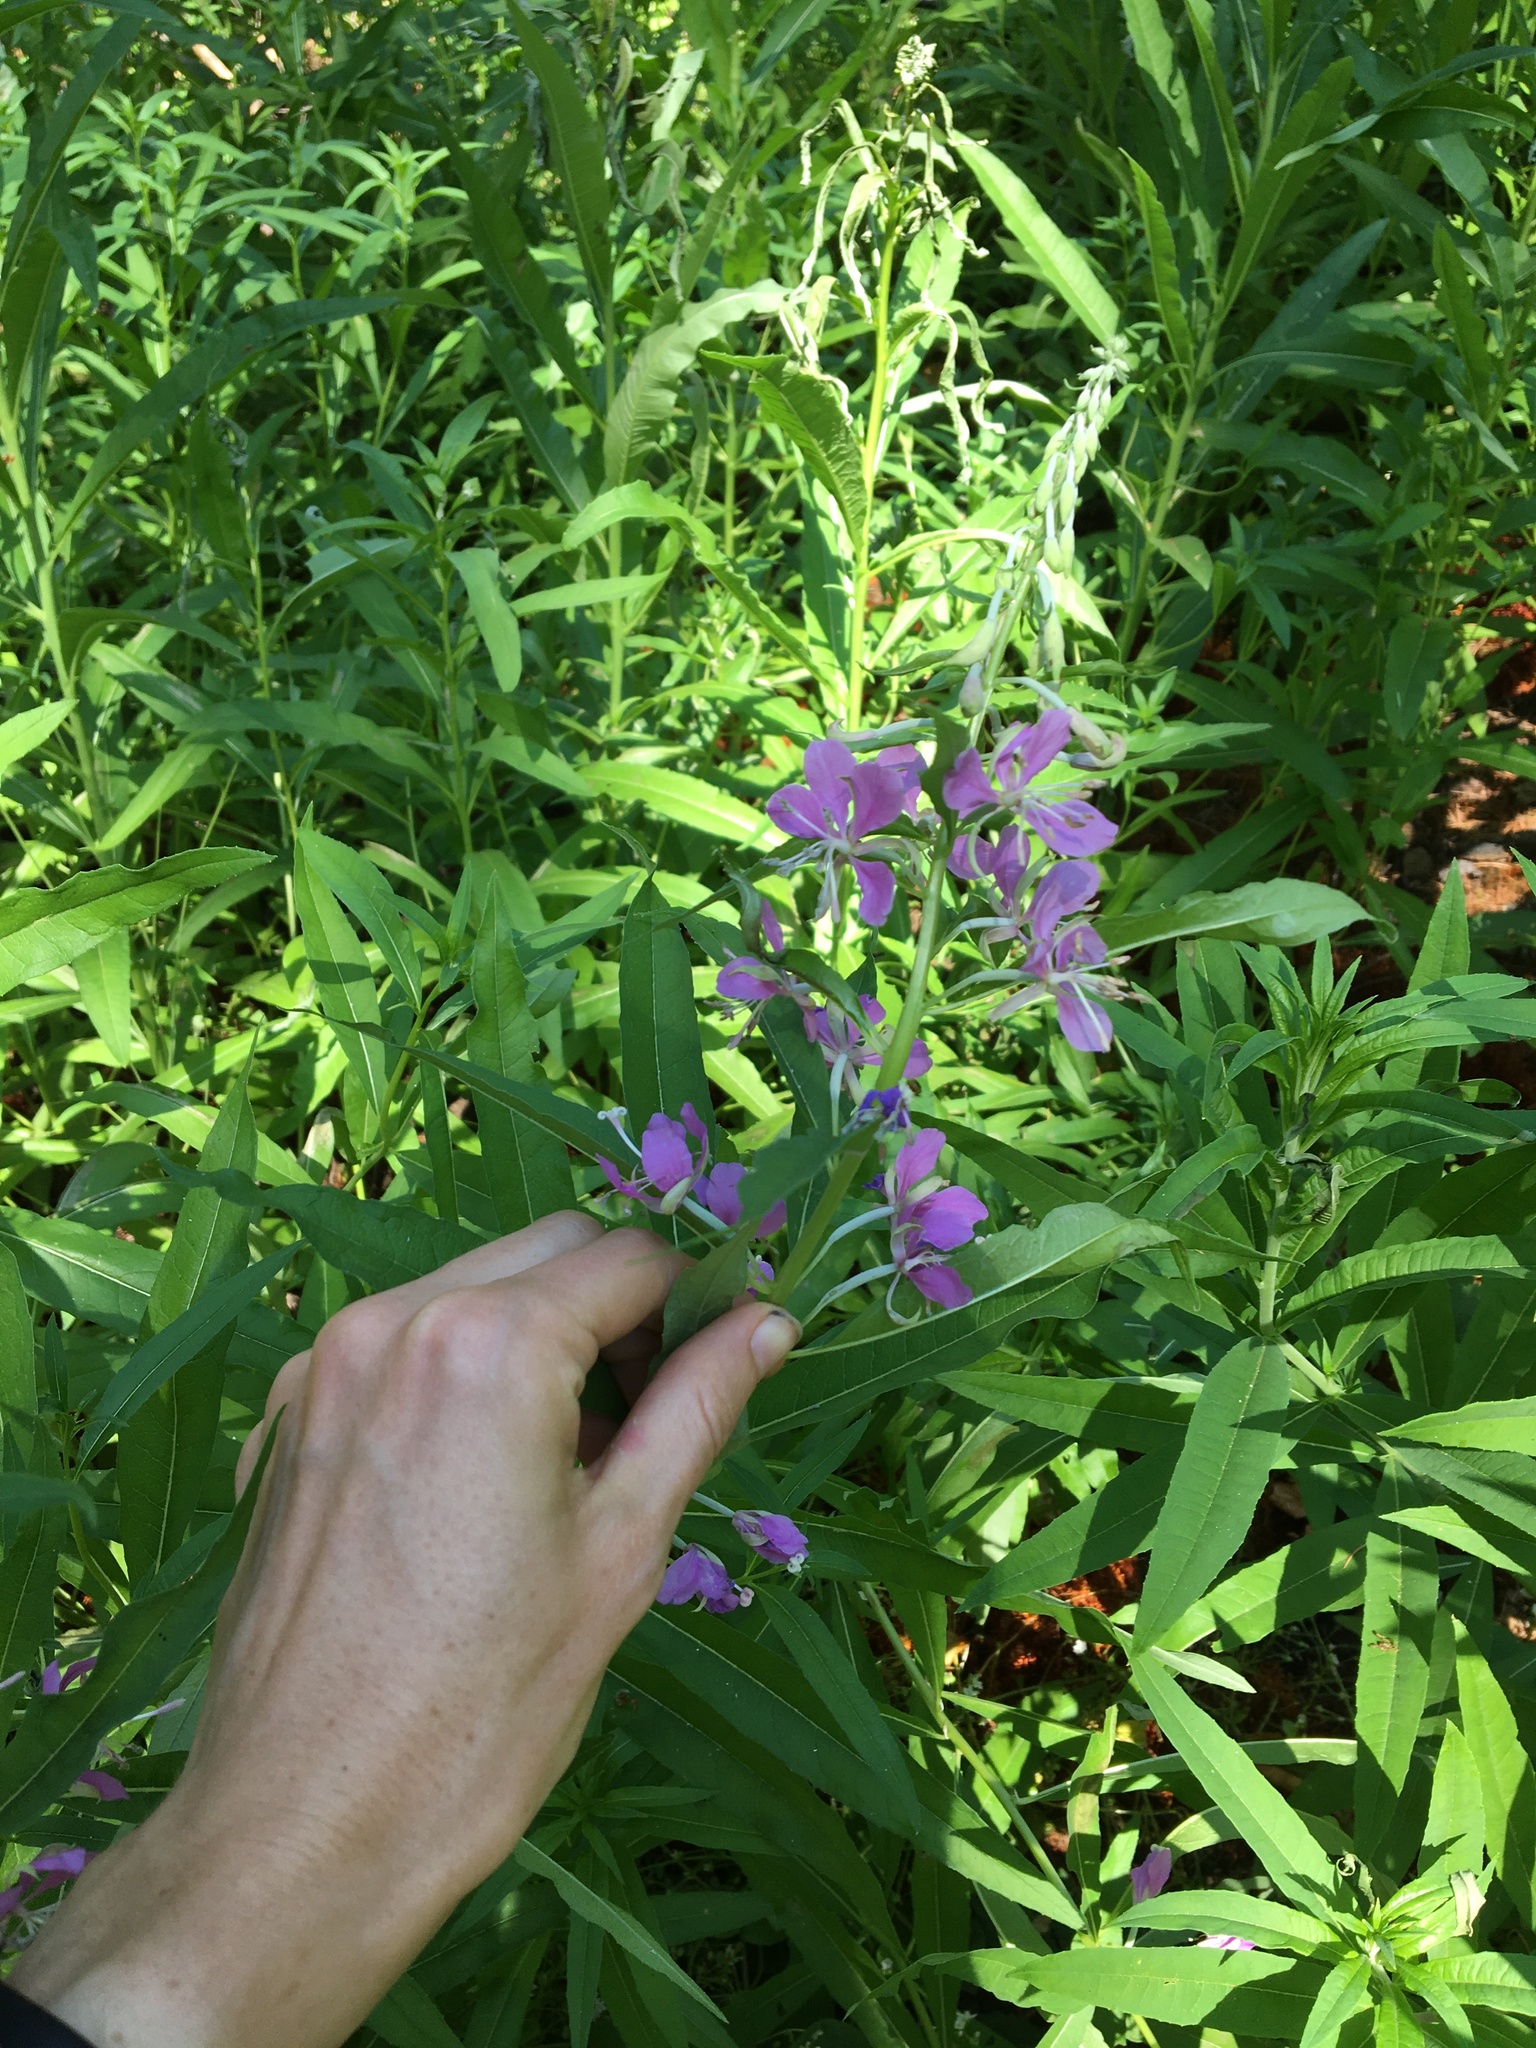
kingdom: Plantae
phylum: Tracheophyta
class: Magnoliopsida
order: Myrtales
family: Onagraceae
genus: Chamaenerion
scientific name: Chamaenerion angustifolium
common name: Fireweed
